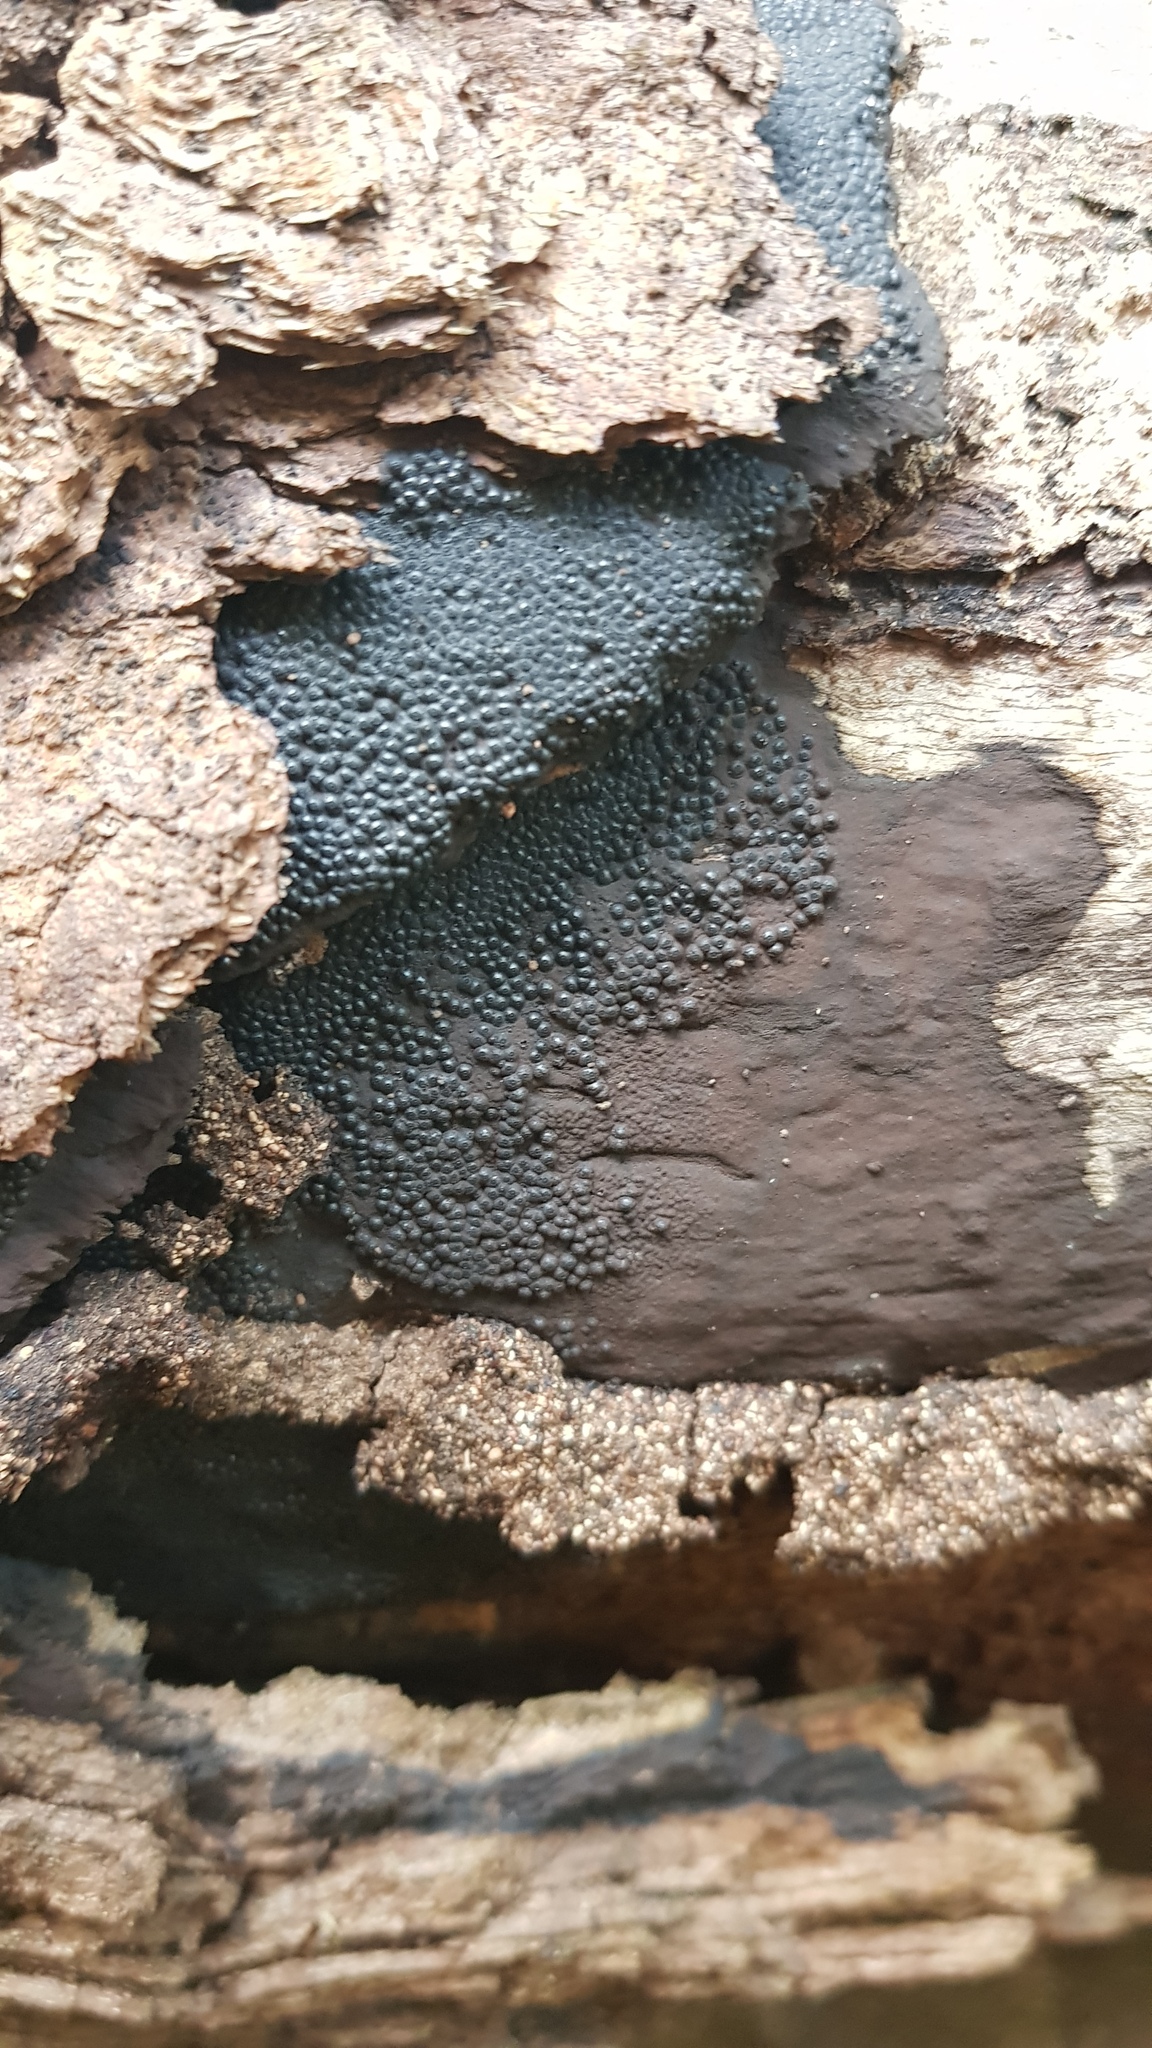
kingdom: Fungi
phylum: Ascomycota
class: Sordariomycetes
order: Xylariales
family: Hypoxylaceae
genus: Annulohypoxylon
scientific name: Annulohypoxylon bovei
